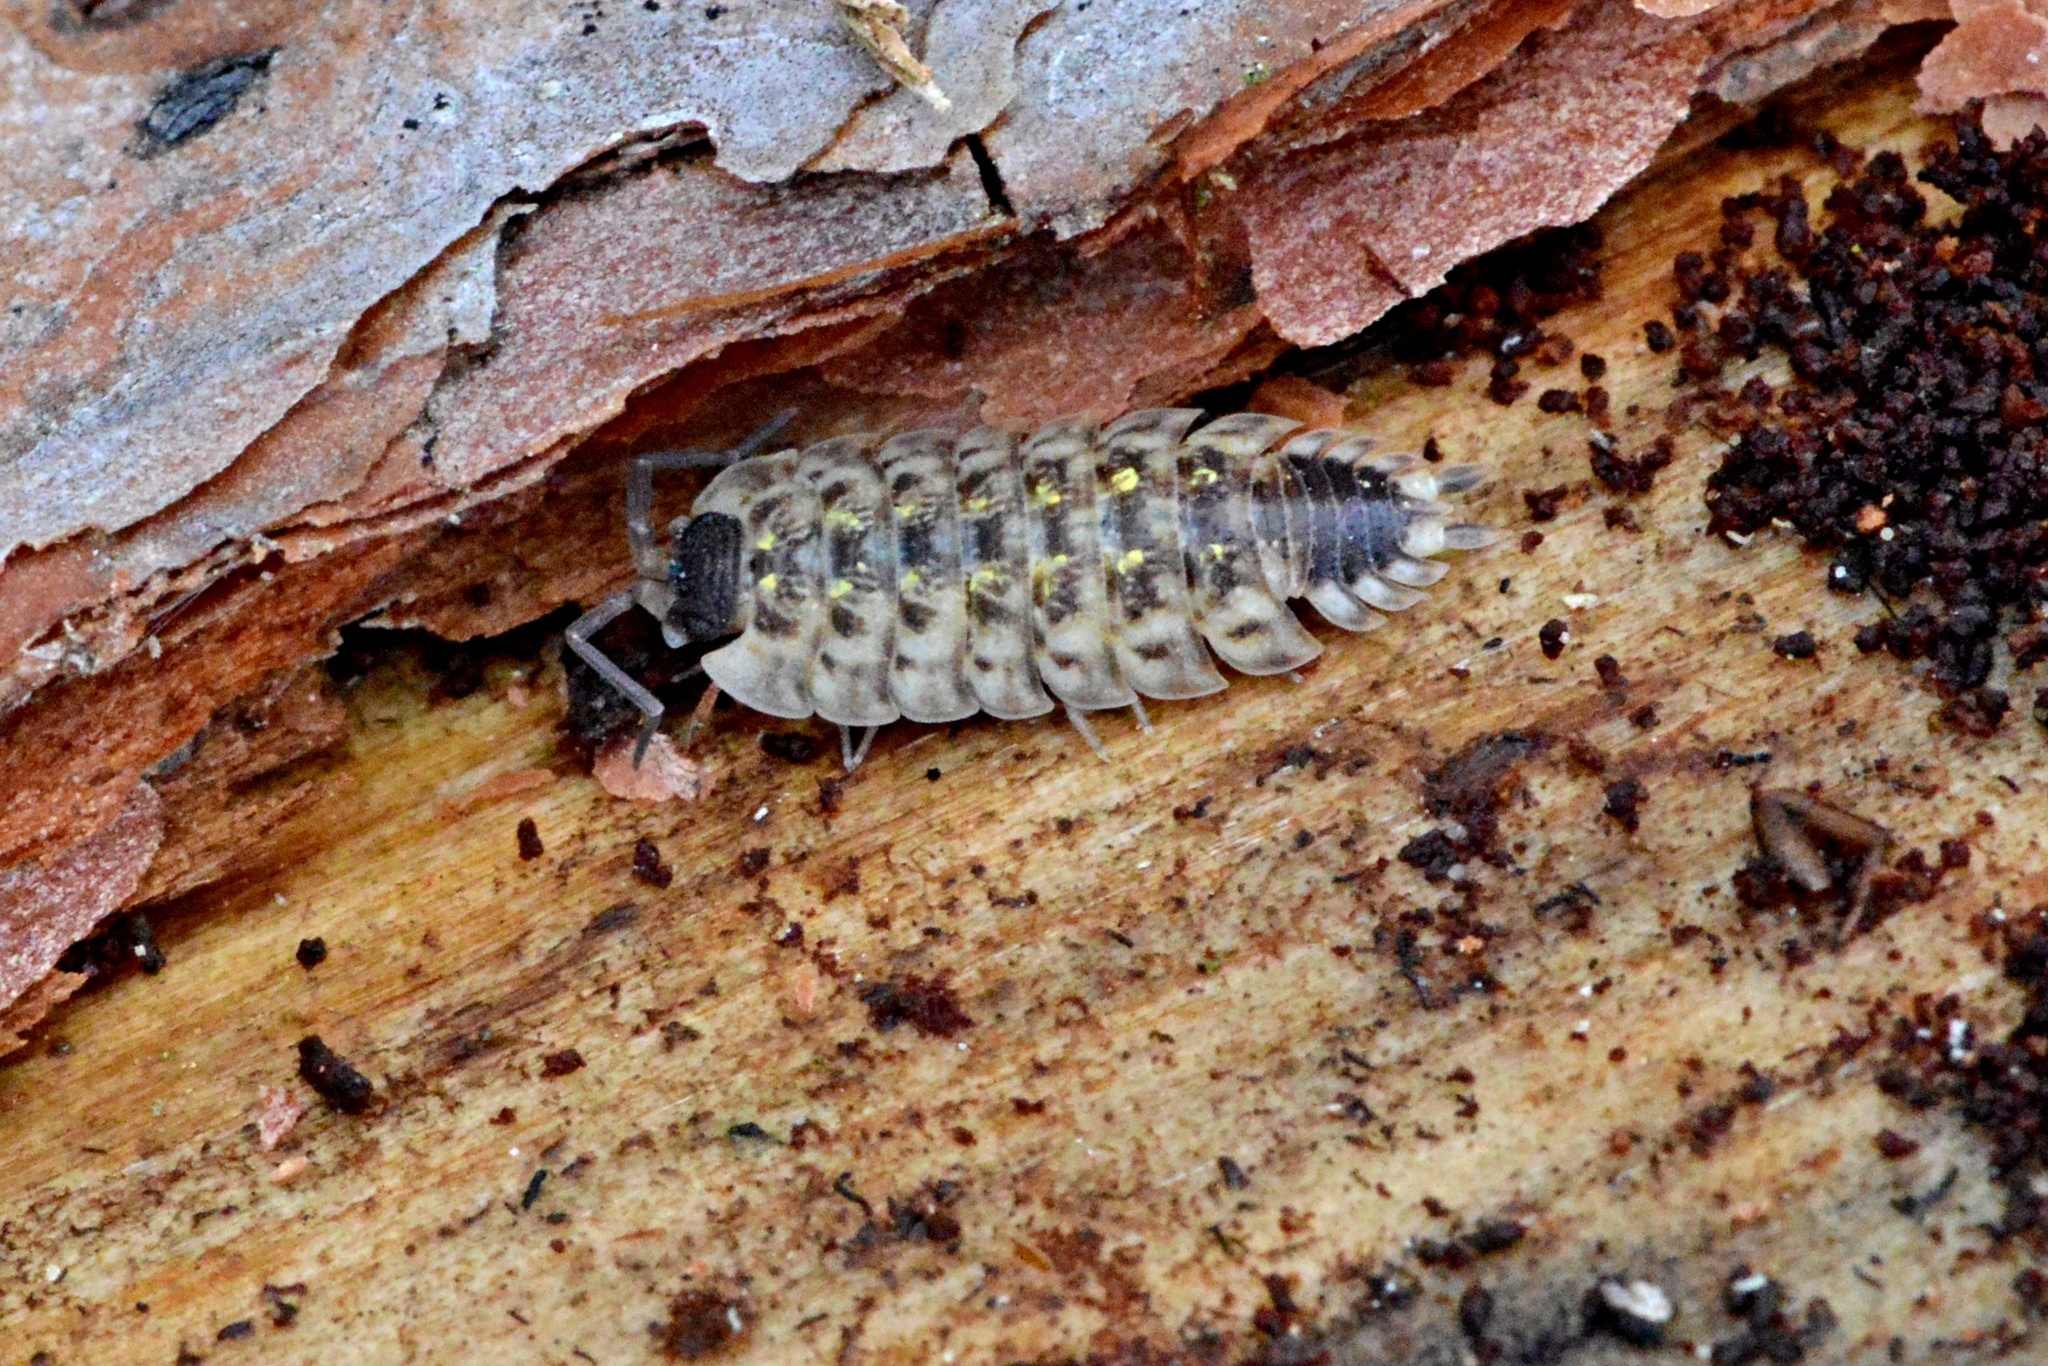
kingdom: Animalia
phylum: Arthropoda
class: Malacostraca
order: Isopoda
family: Porcellionidae
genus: Porcellio
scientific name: Porcellio spinicornis
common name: Painted woodlouse
